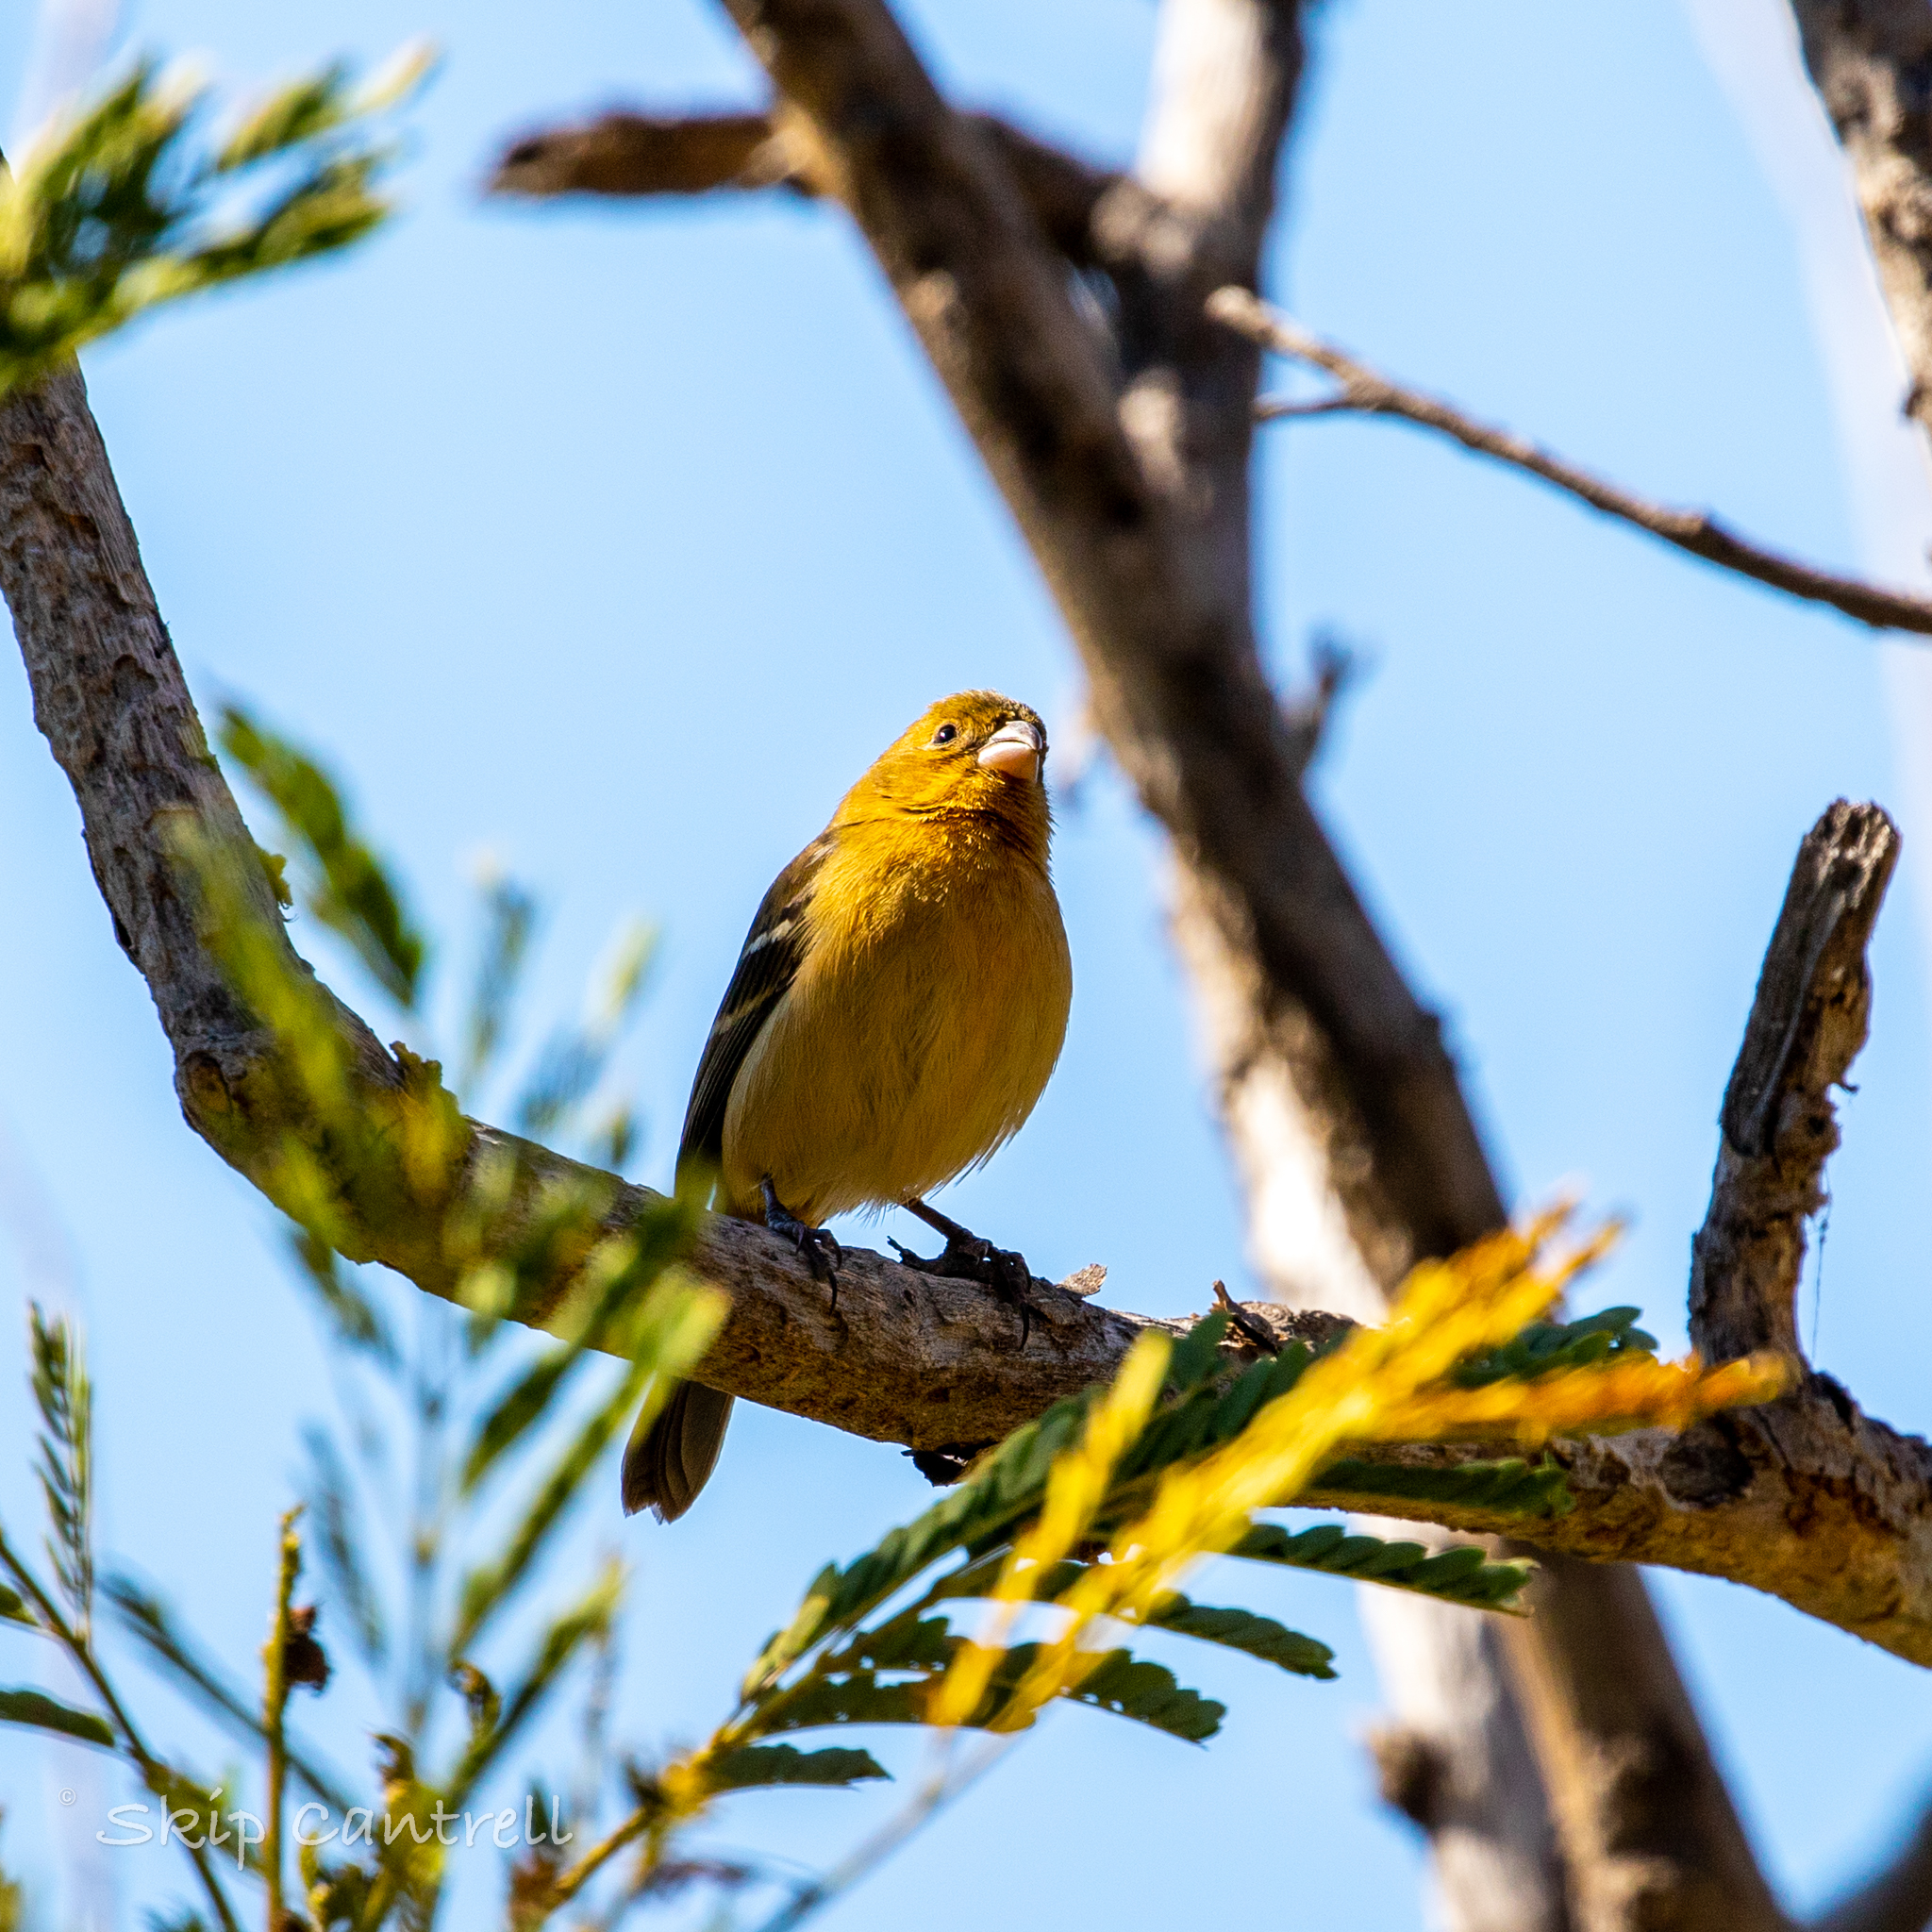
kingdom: Animalia
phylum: Chordata
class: Aves
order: Passeriformes
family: Thraupidae
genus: Sporophila
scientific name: Sporophila morelleti
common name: Morelet's seedeater
